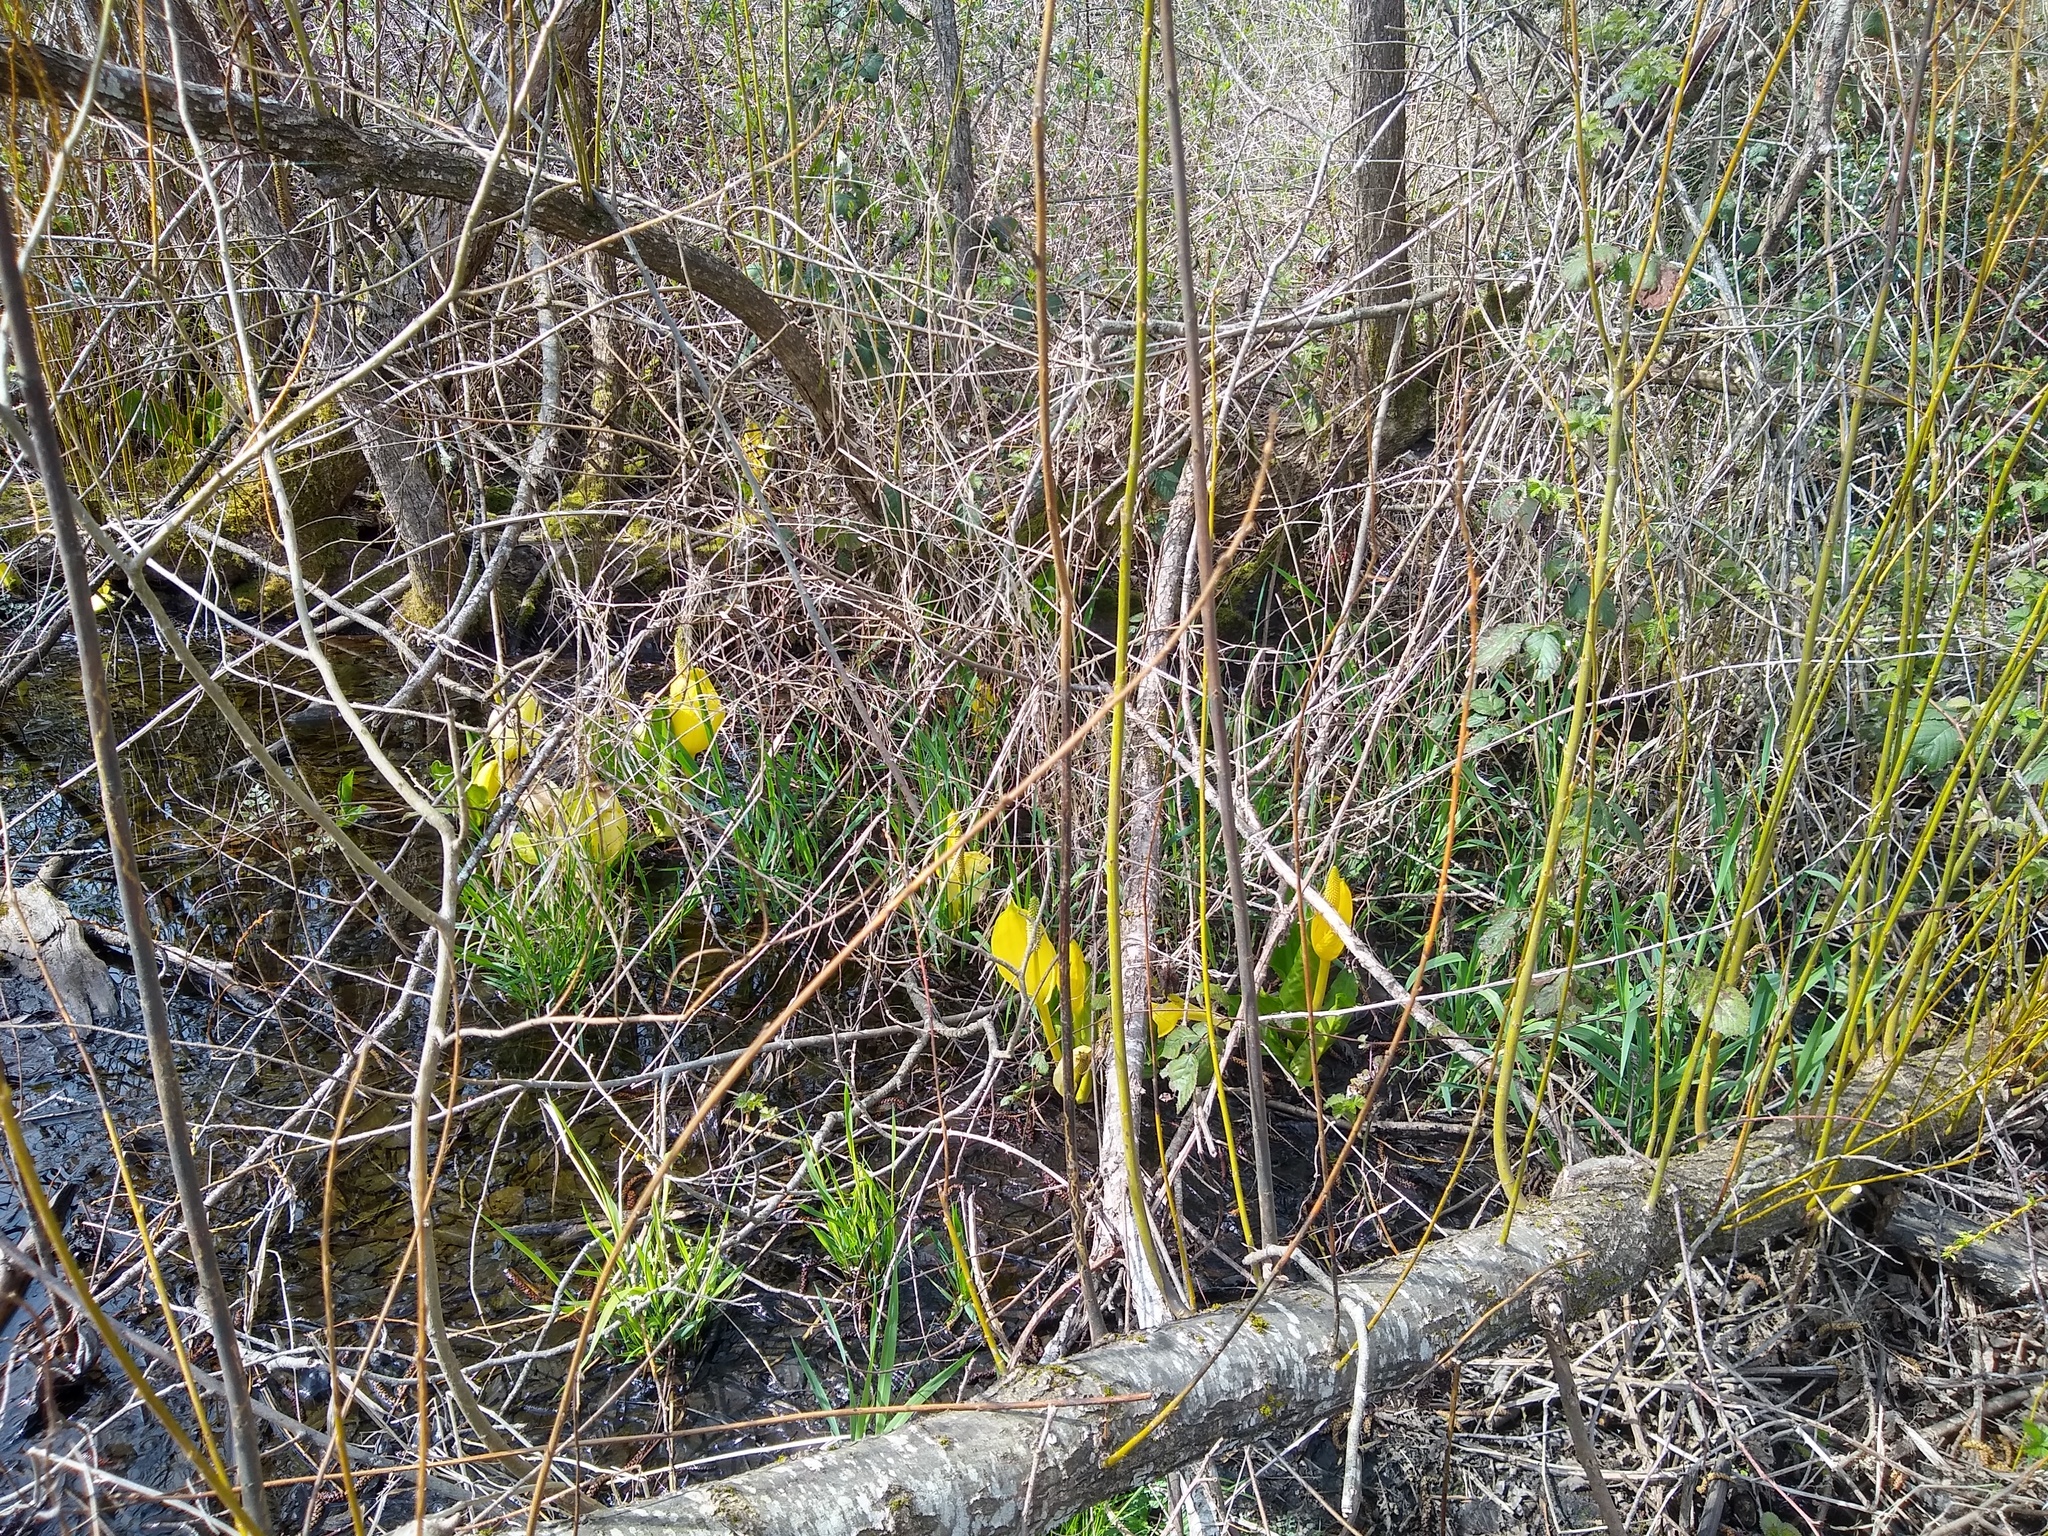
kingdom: Plantae
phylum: Tracheophyta
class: Liliopsida
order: Alismatales
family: Araceae
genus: Lysichiton
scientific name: Lysichiton americanus
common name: American skunk cabbage
